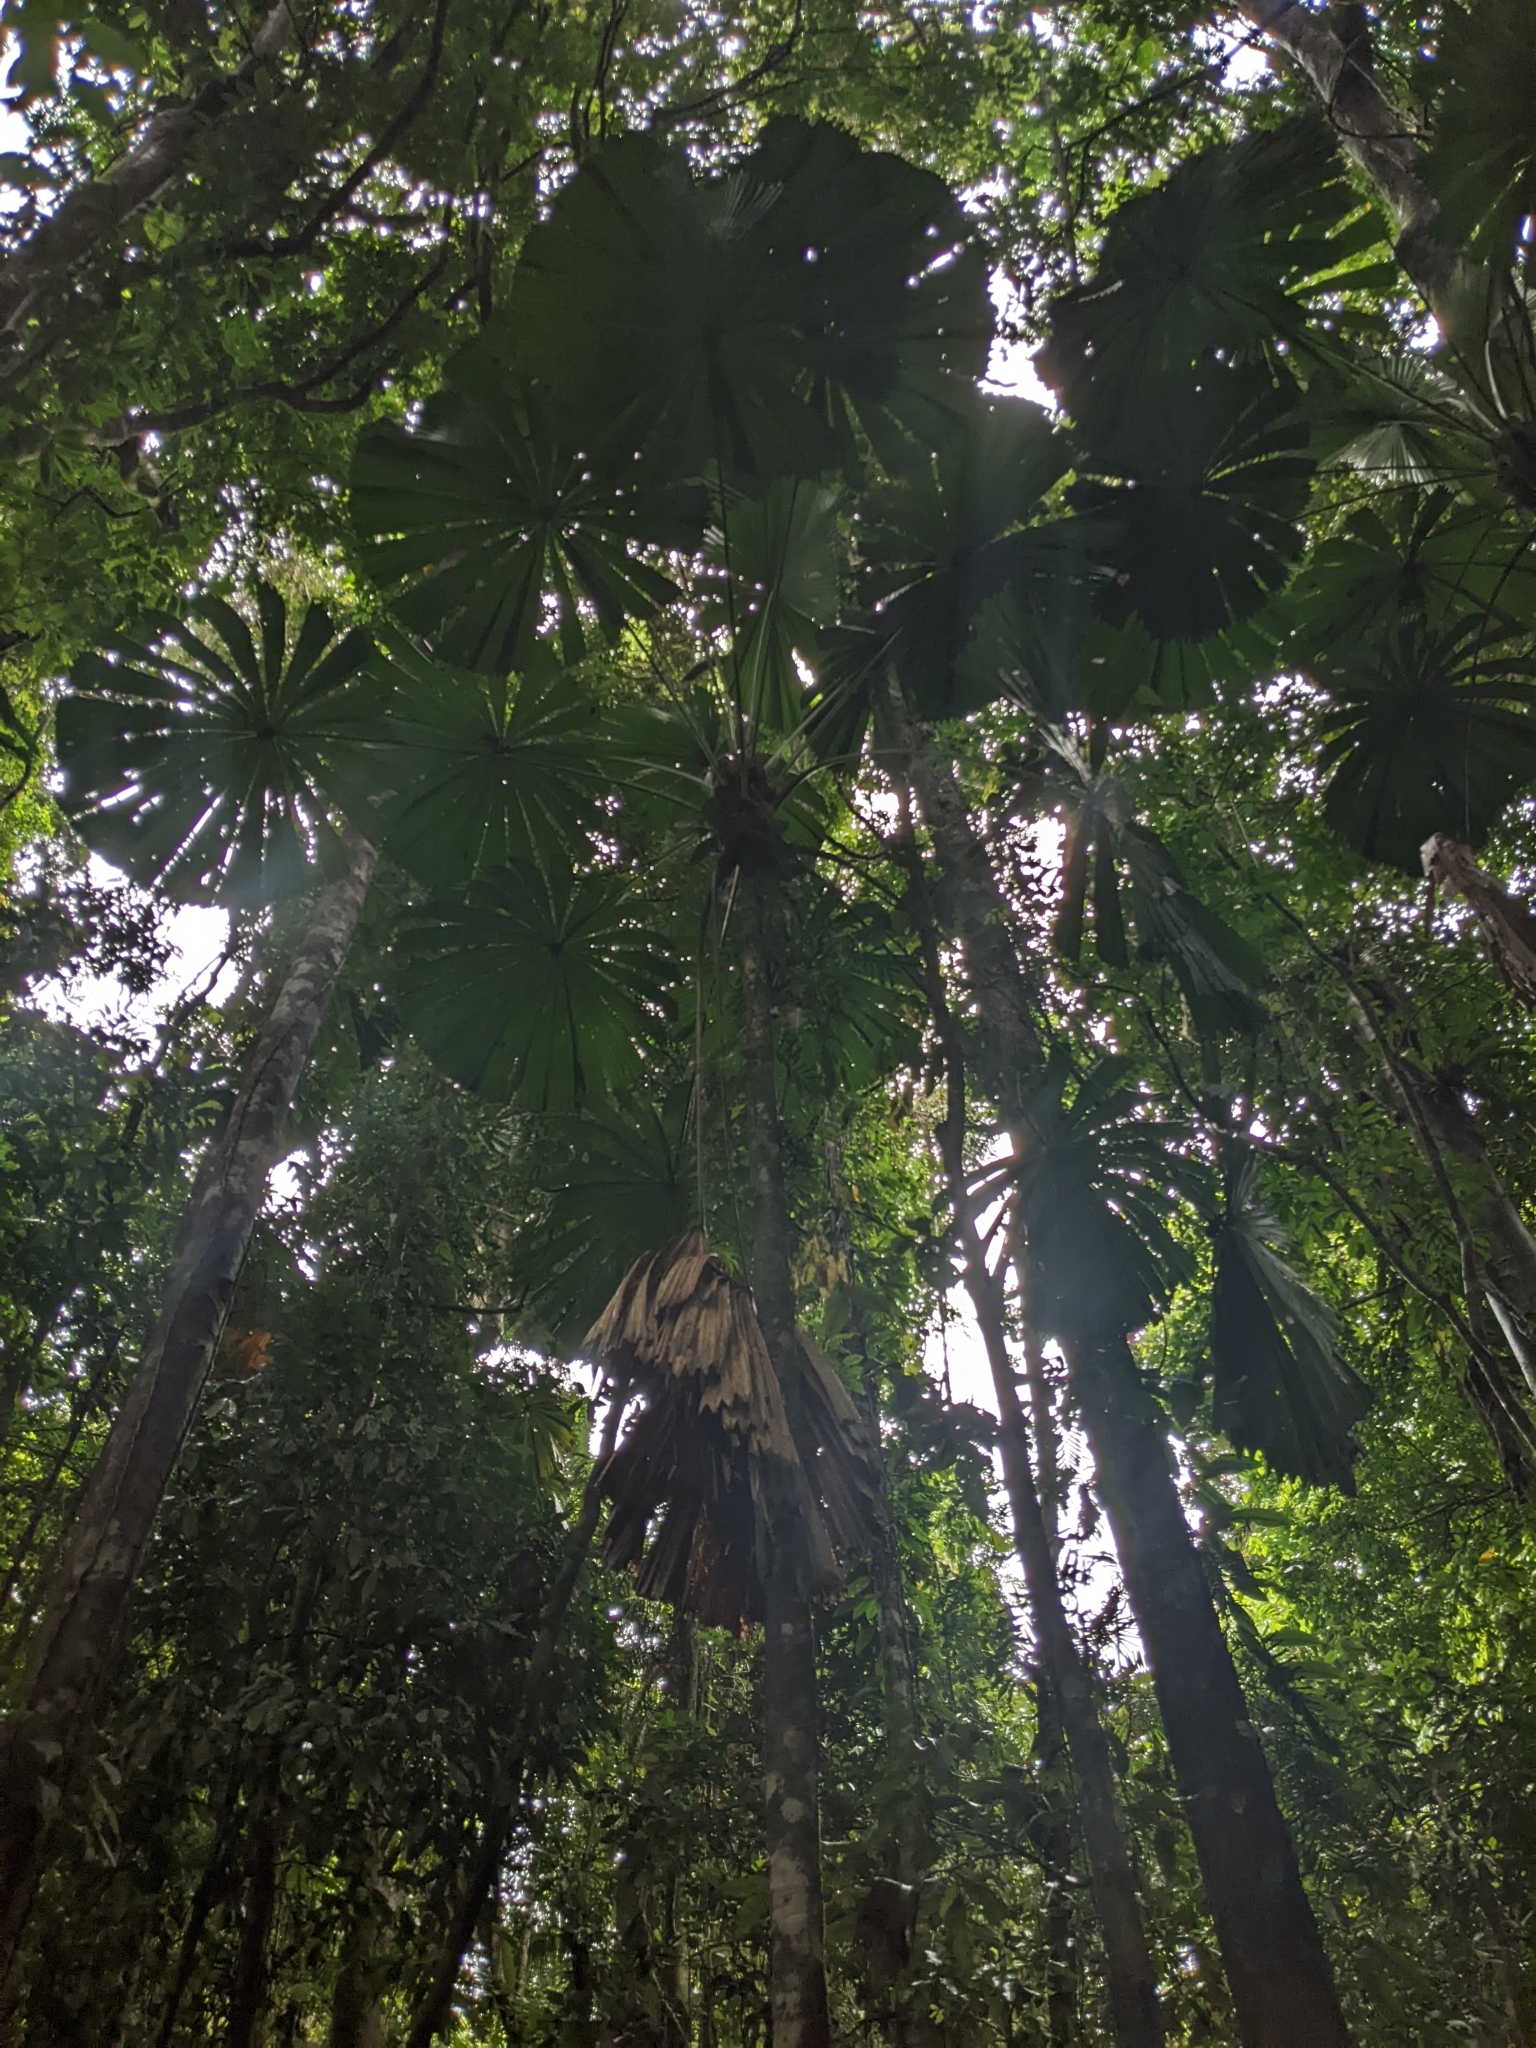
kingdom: Plantae
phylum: Tracheophyta
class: Liliopsida
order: Arecales
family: Arecaceae
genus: Licuala
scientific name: Licuala ramsayi
